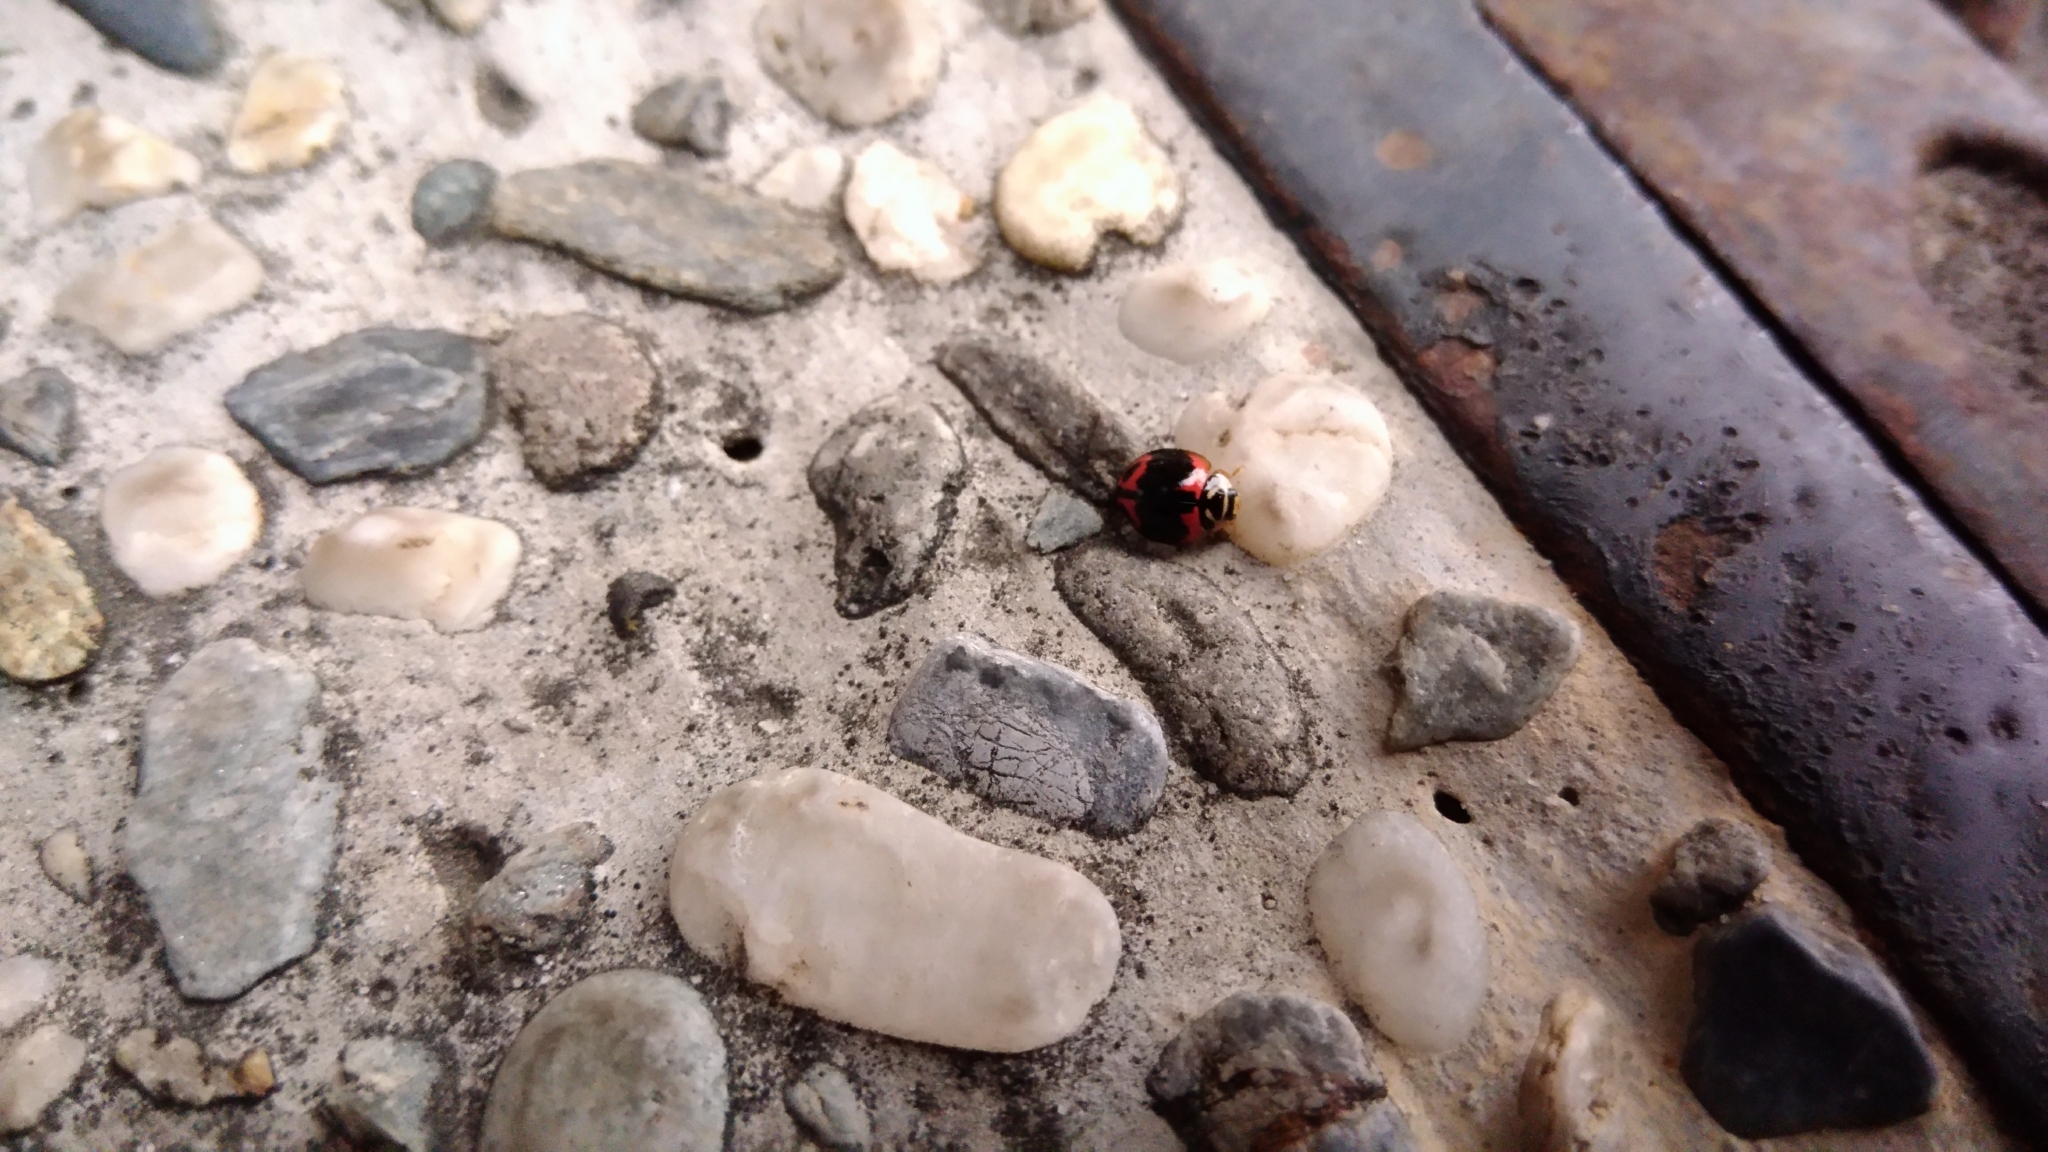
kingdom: Animalia
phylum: Arthropoda
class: Insecta
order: Coleoptera
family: Coccinellidae
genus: Cheilomenes
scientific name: Cheilomenes sexmaculata
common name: Ladybird beetle
